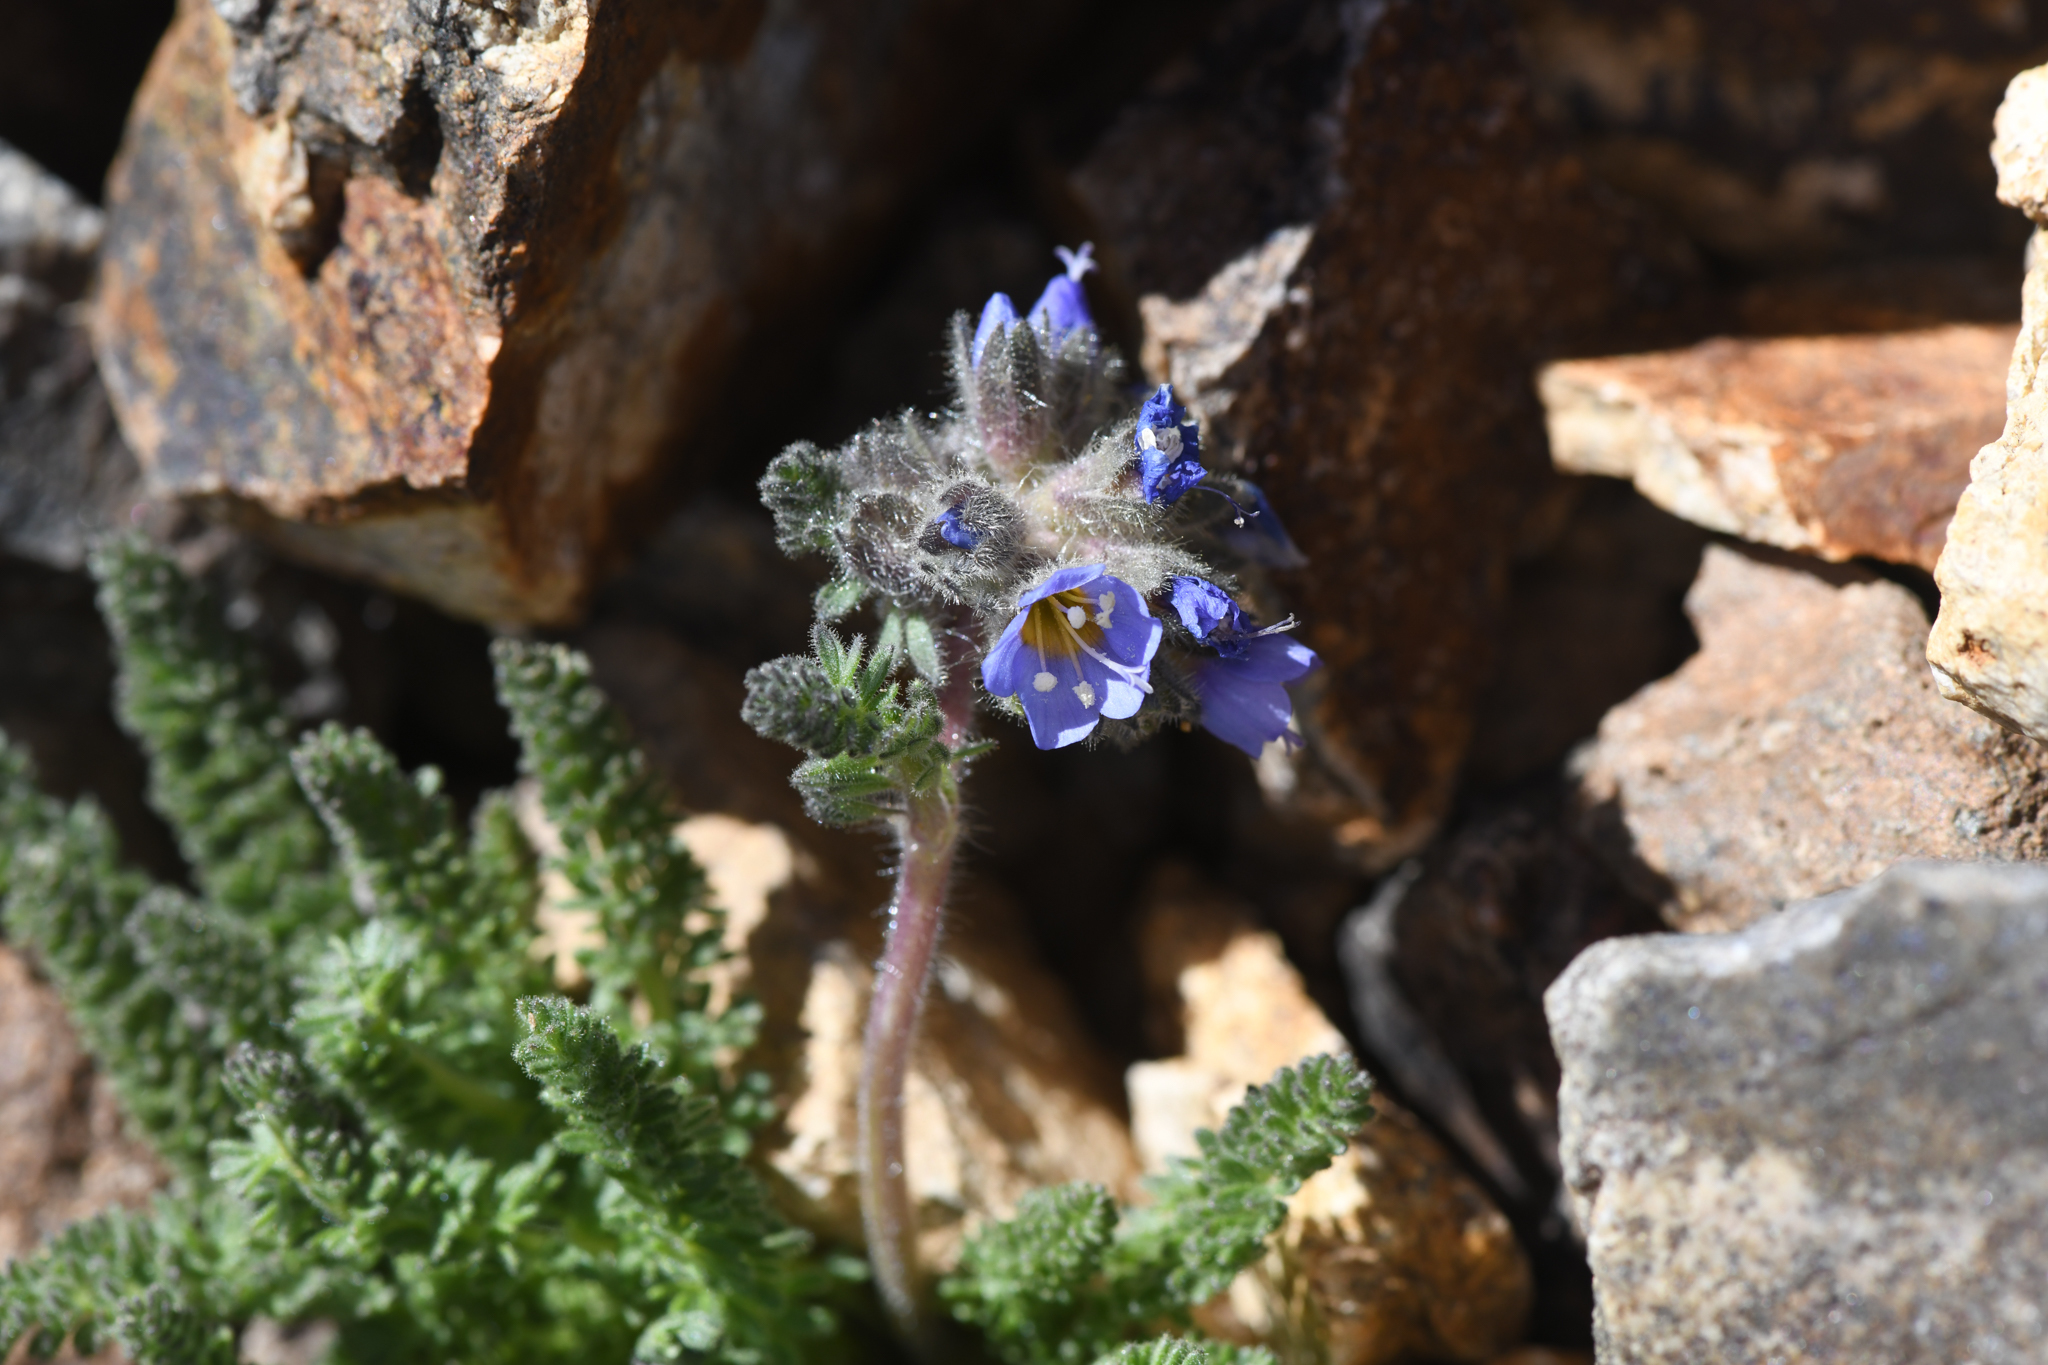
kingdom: Plantae
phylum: Tracheophyta
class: Magnoliopsida
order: Ericales
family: Polemoniaceae
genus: Polemonium
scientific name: Polemonium chartaceum
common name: Mason's sky-pilot
